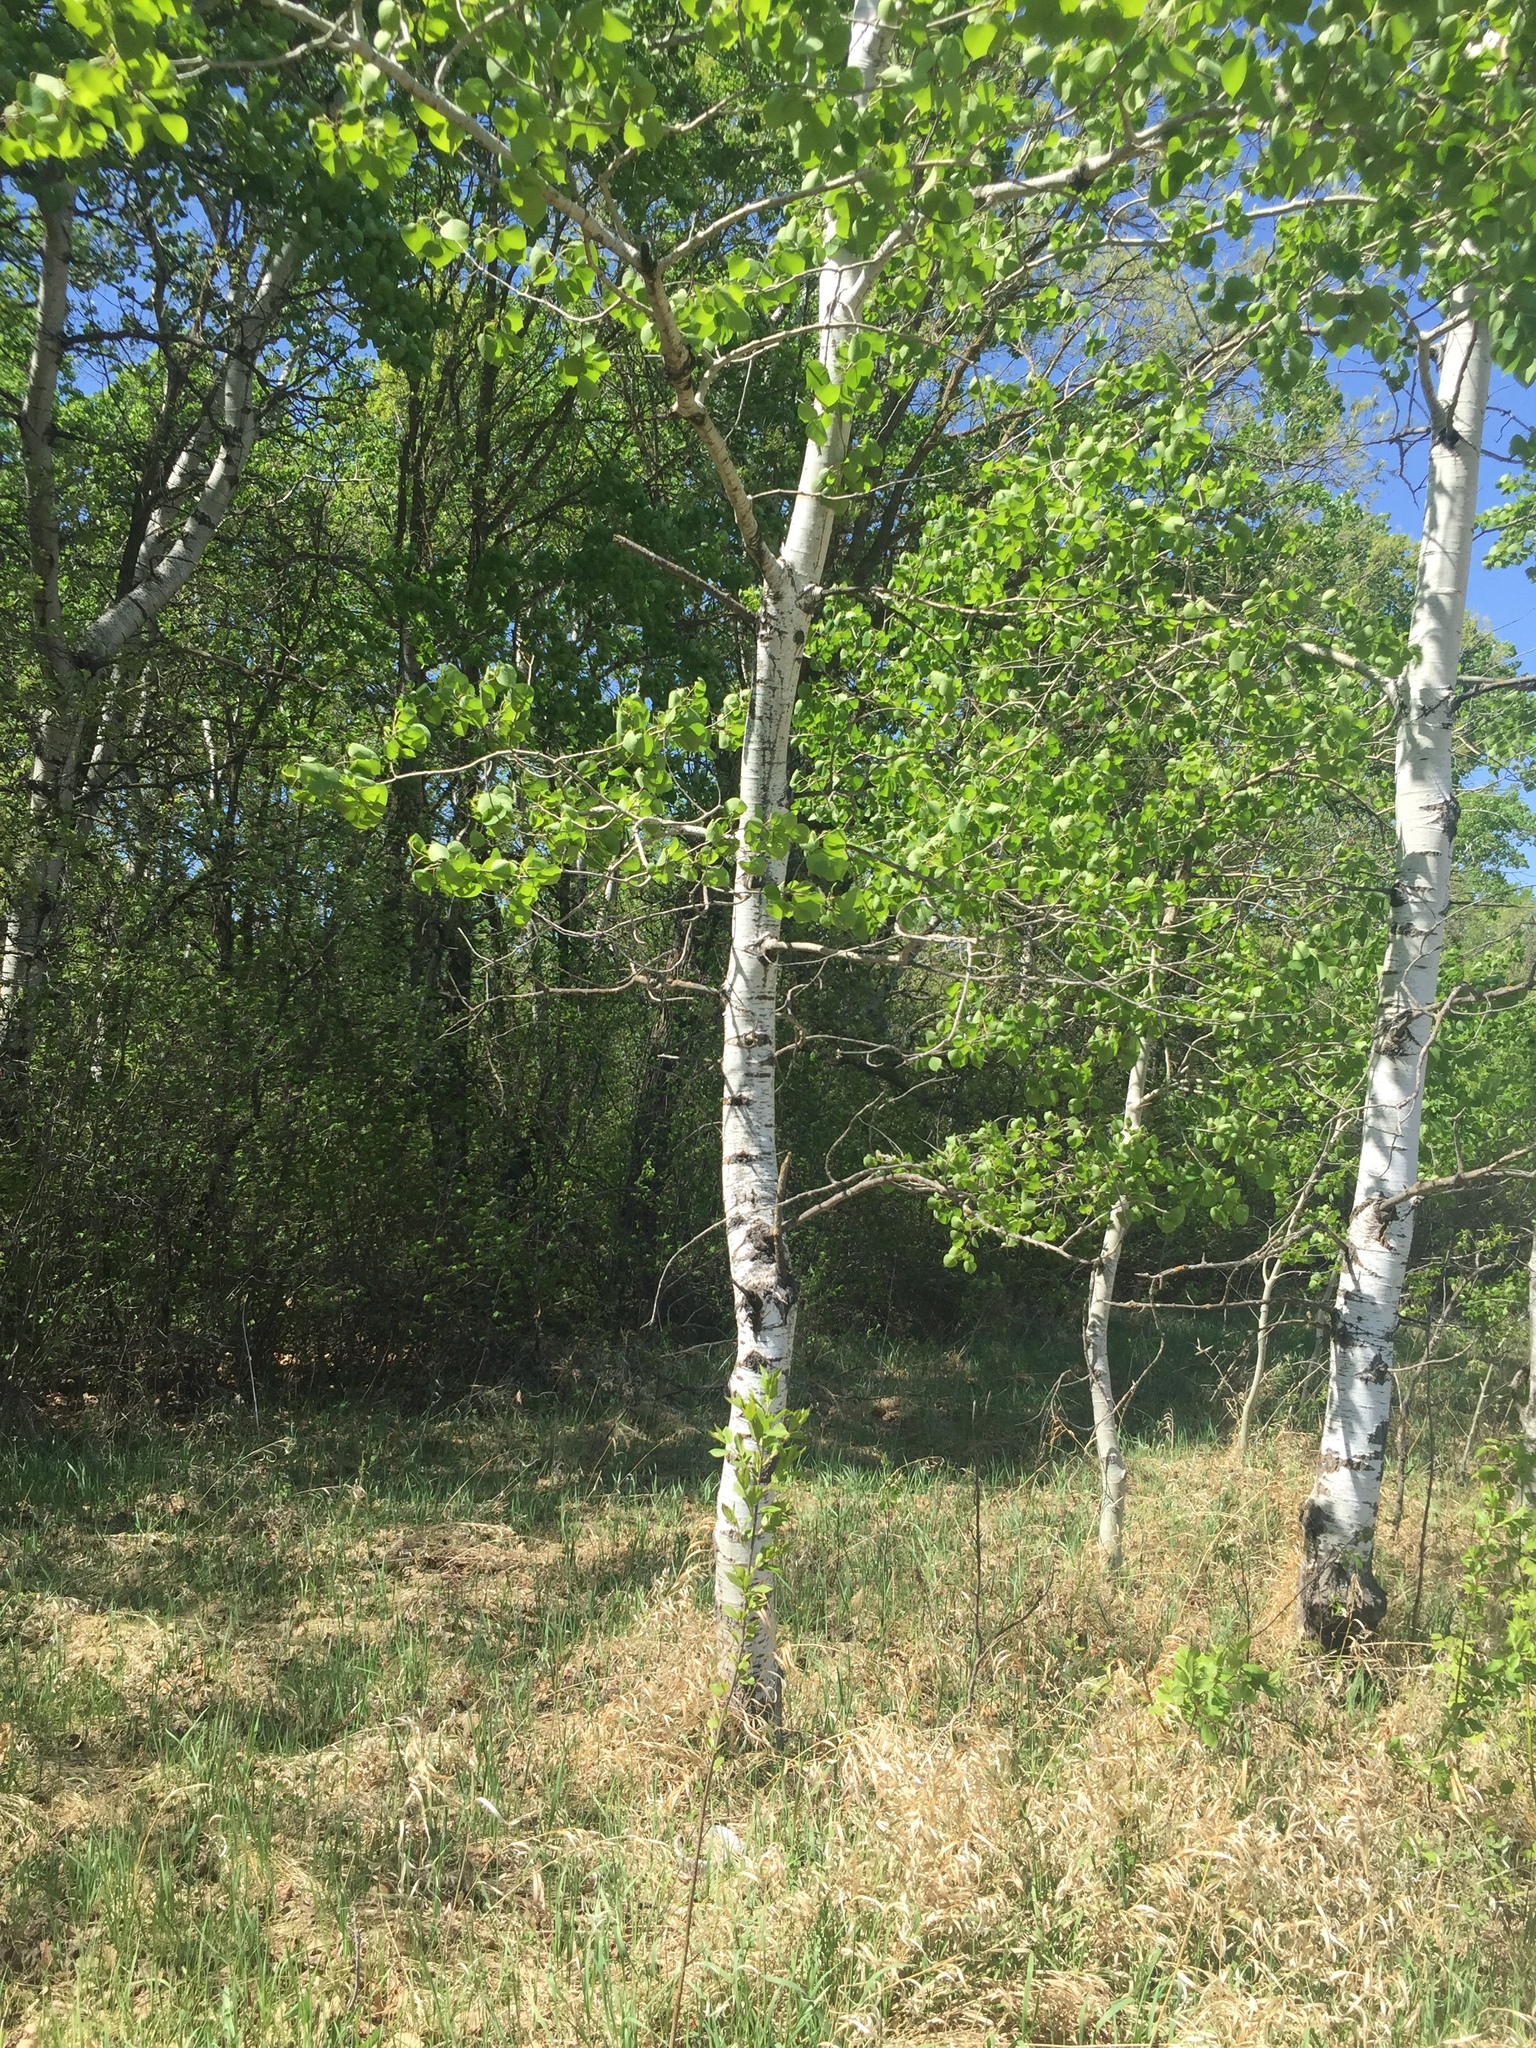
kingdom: Plantae
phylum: Tracheophyta
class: Magnoliopsida
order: Malpighiales
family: Salicaceae
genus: Populus
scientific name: Populus tremuloides
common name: Quaking aspen
